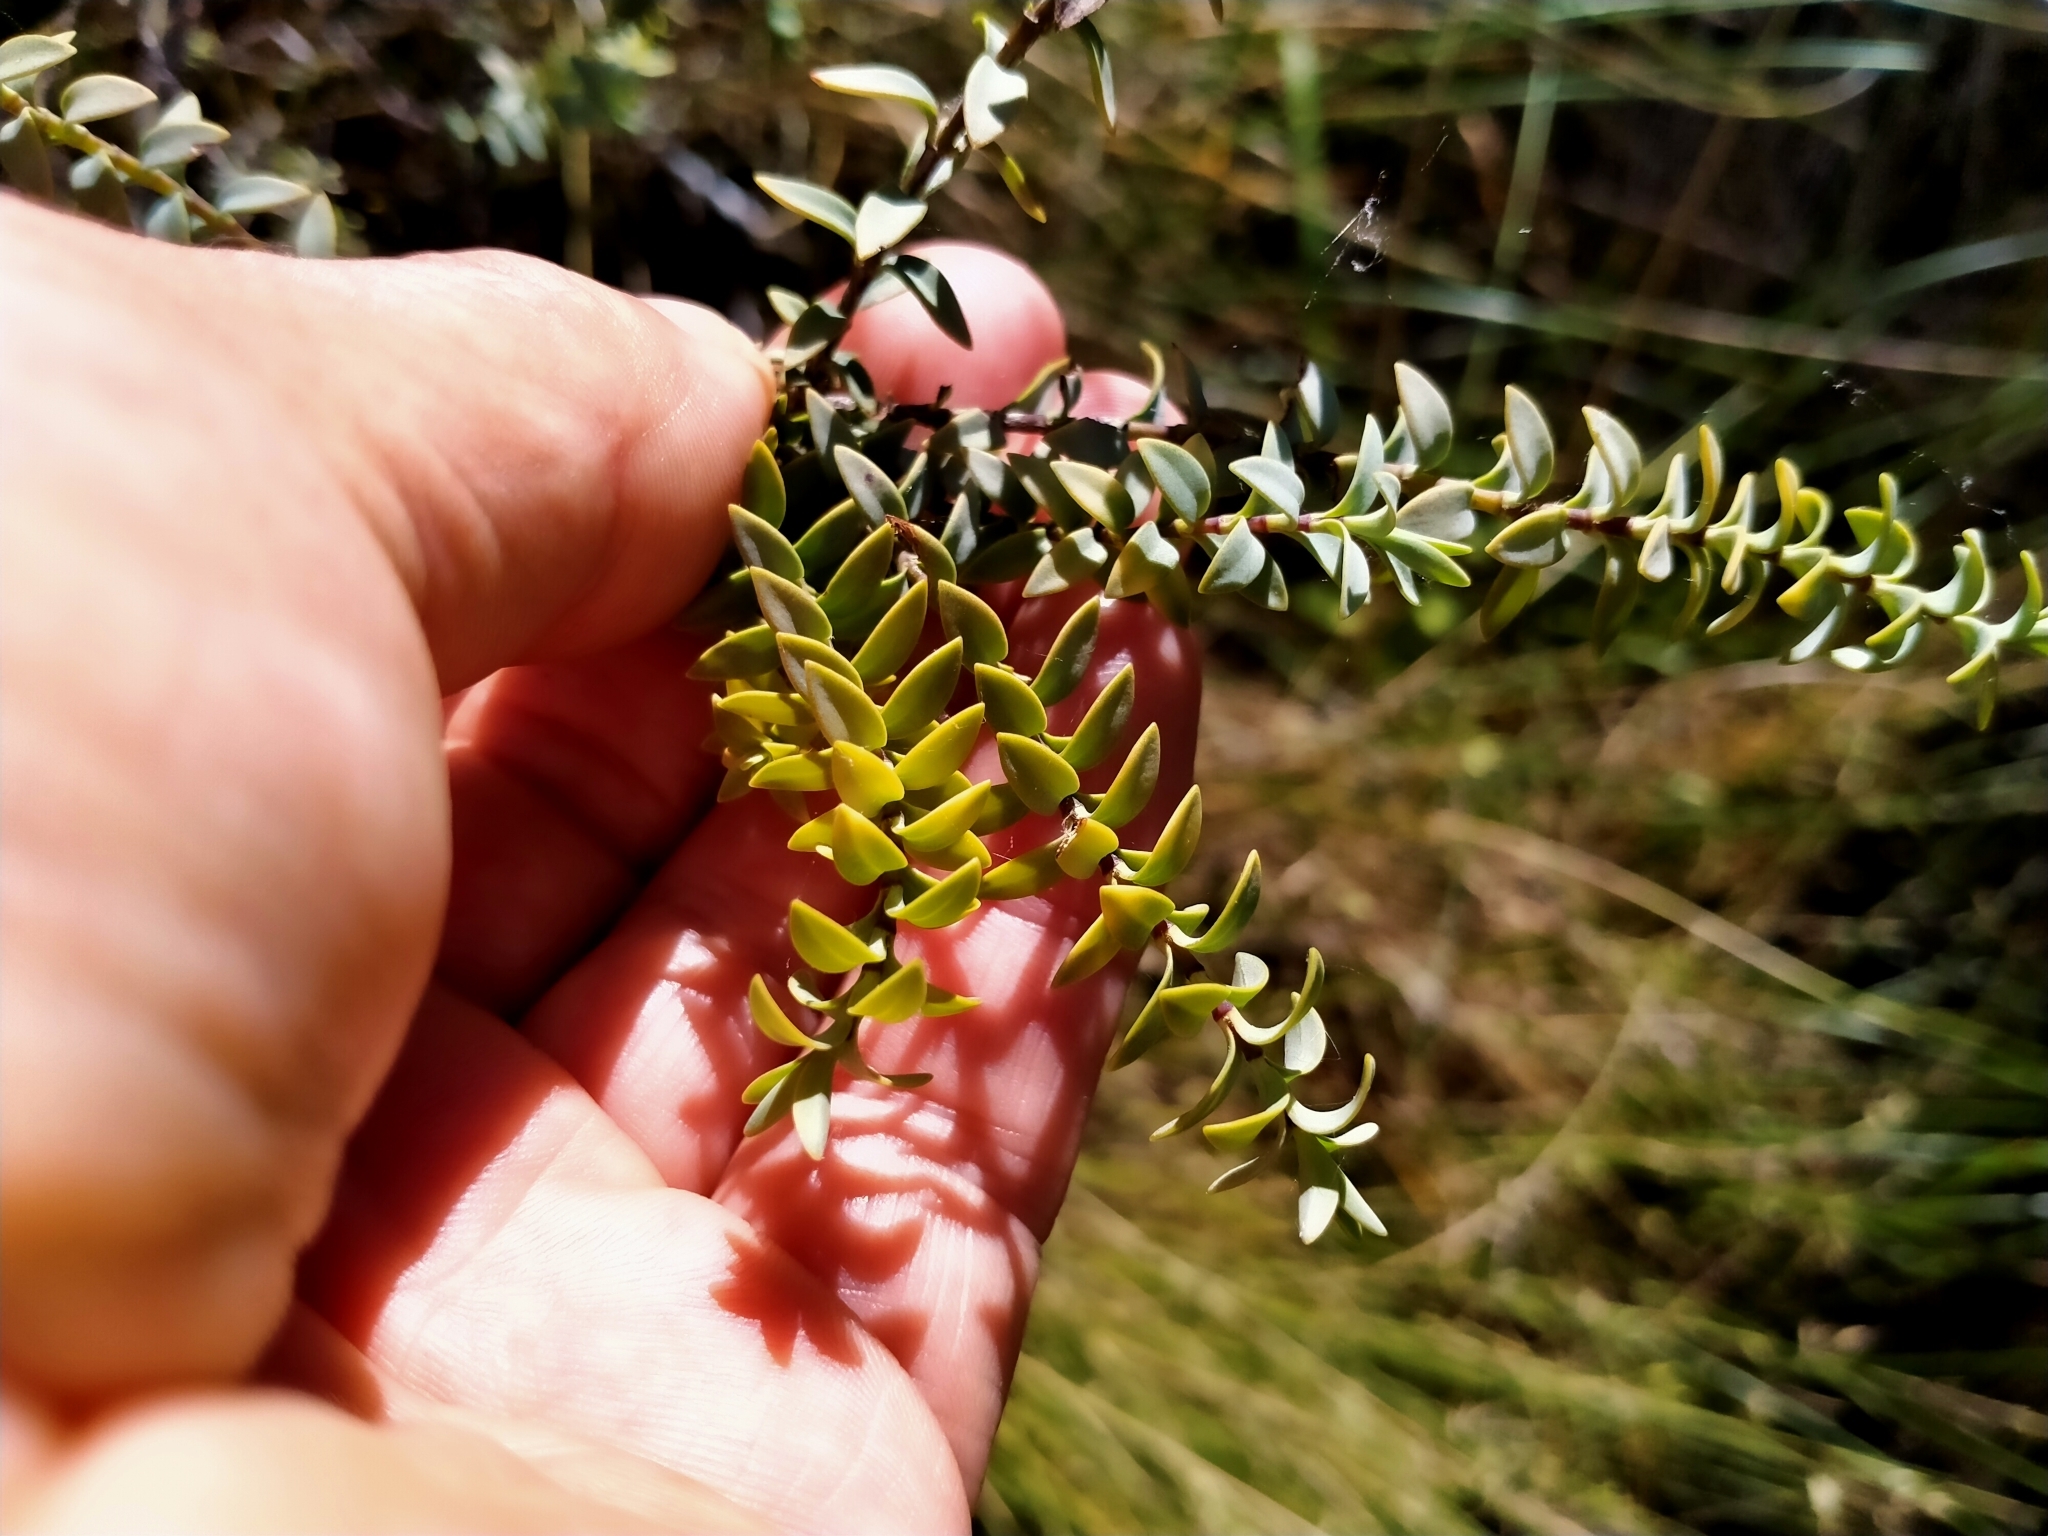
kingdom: Plantae
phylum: Tracheophyta
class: Magnoliopsida
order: Lamiales
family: Plantaginaceae
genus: Veronica
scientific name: Veronica pimeleoides
